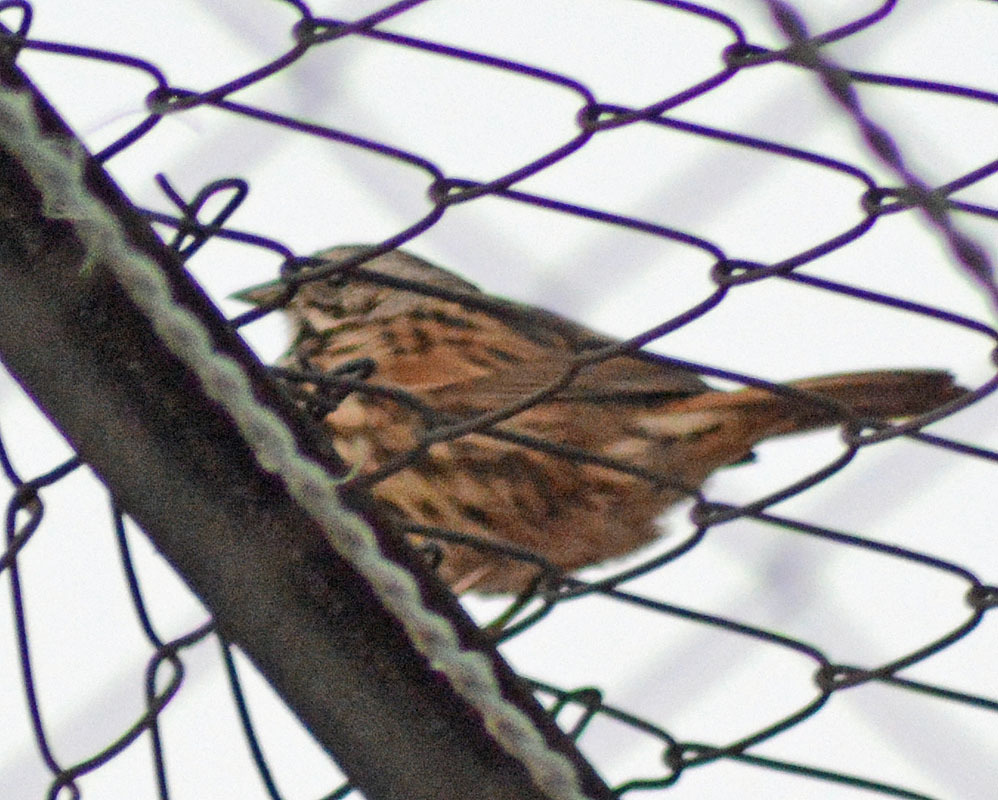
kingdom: Animalia
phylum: Chordata
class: Aves
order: Passeriformes
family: Passerellidae
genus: Melospiza
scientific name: Melospiza melodia
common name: Song sparrow
